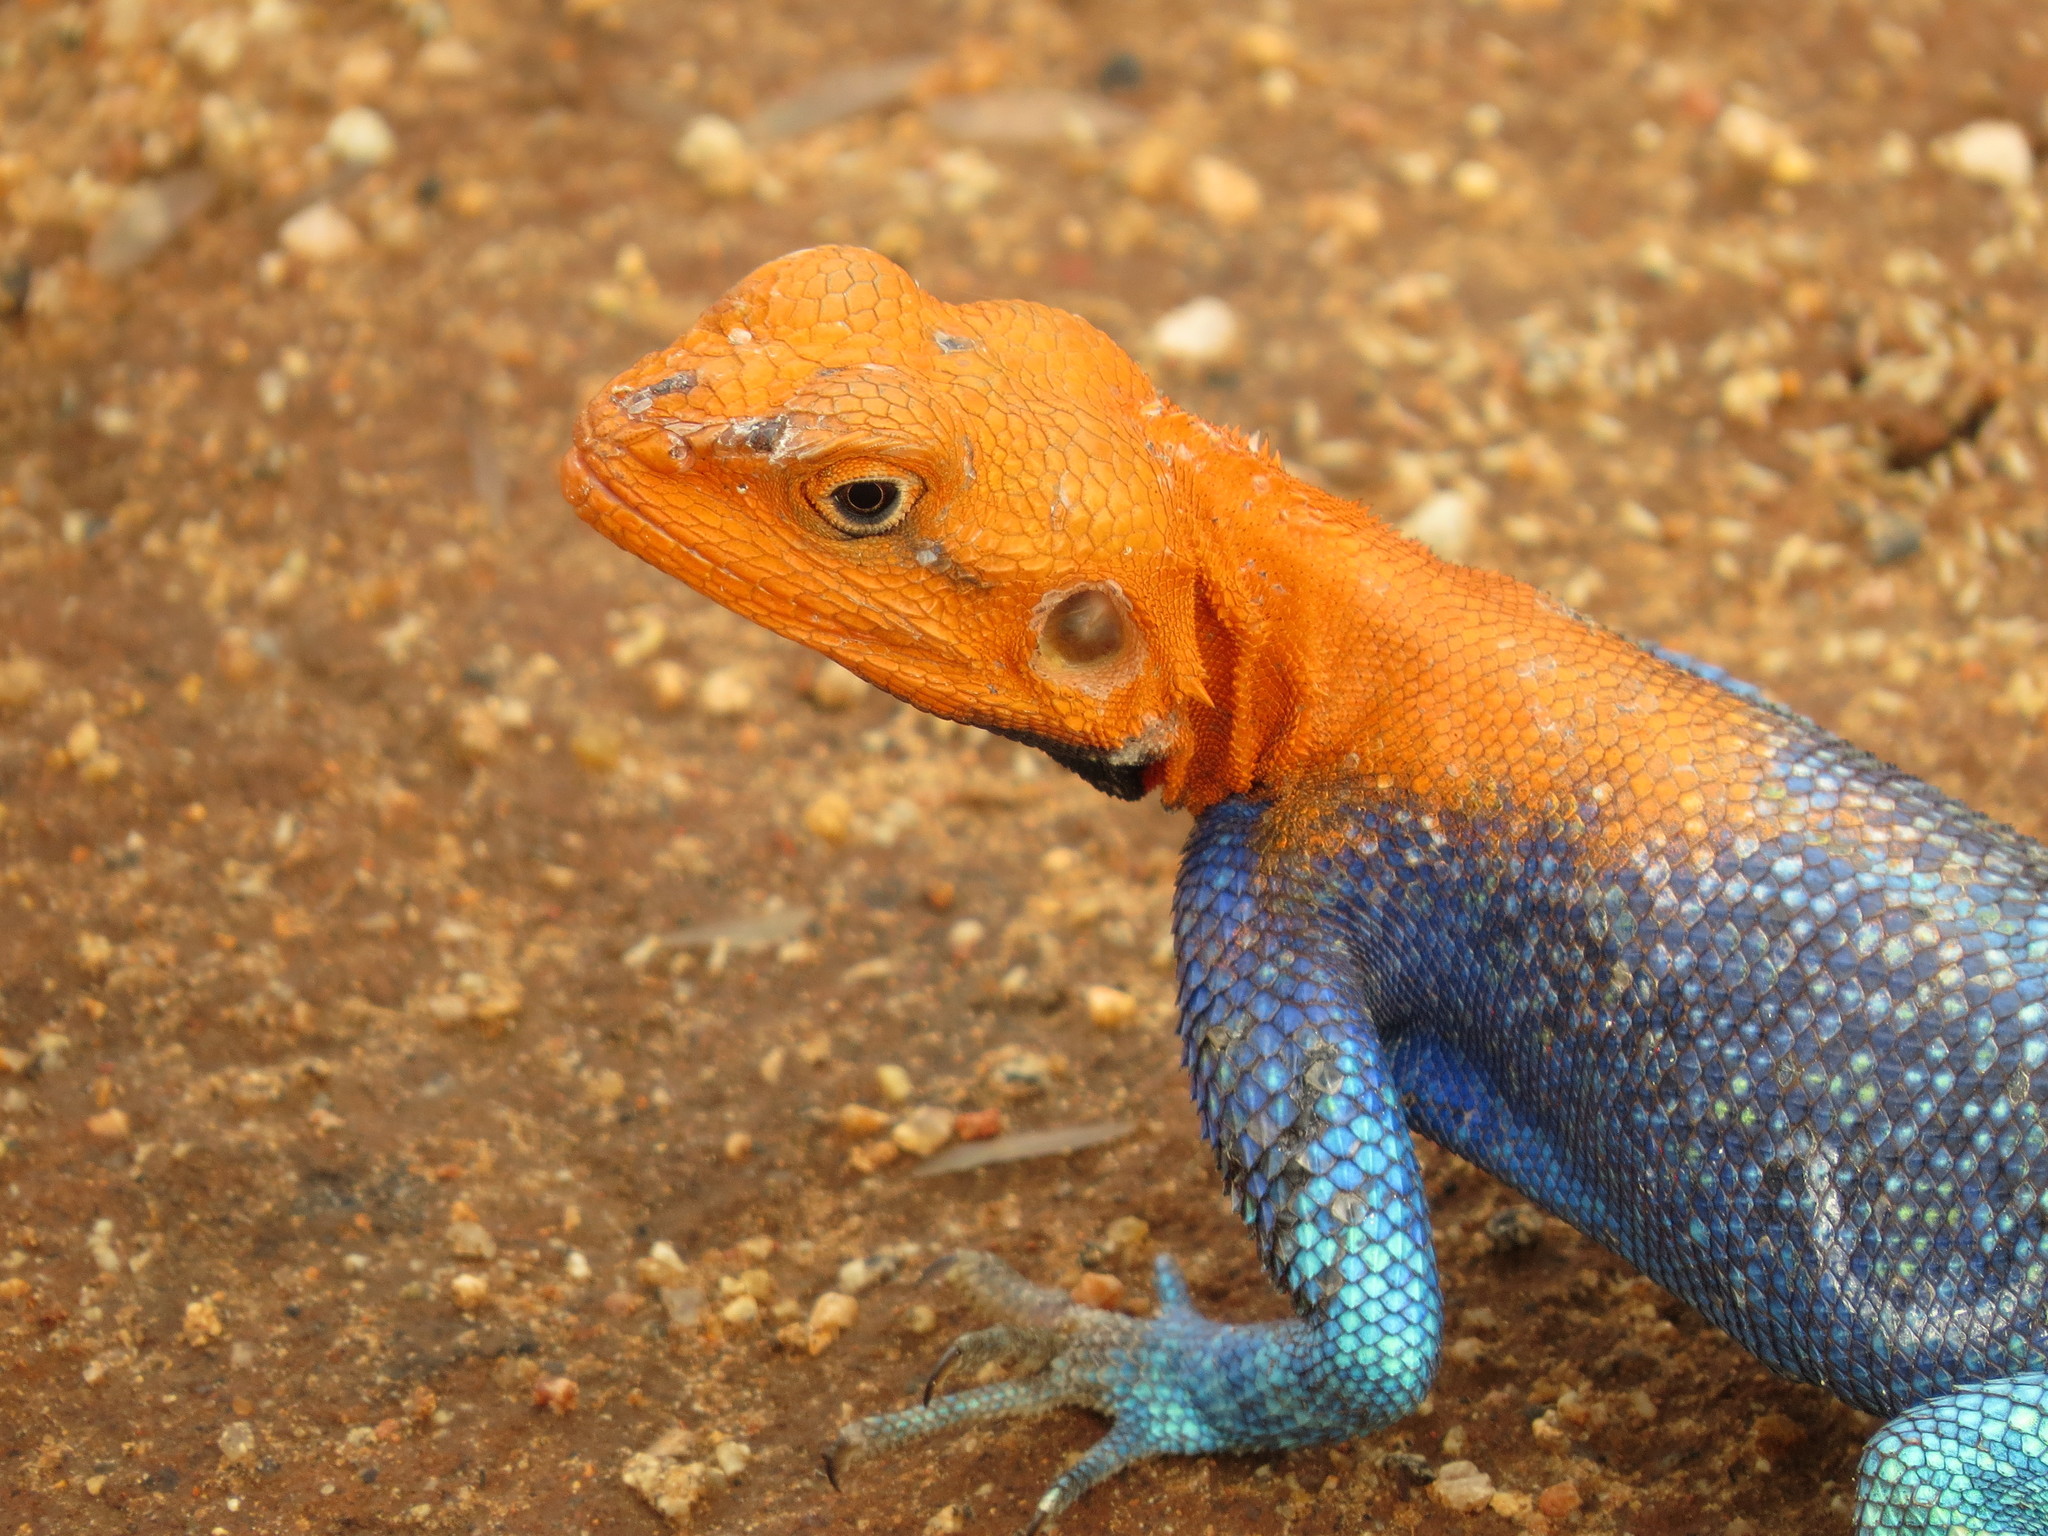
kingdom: Animalia
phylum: Chordata
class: Squamata
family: Agamidae
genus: Agama
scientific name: Agama dodomae
